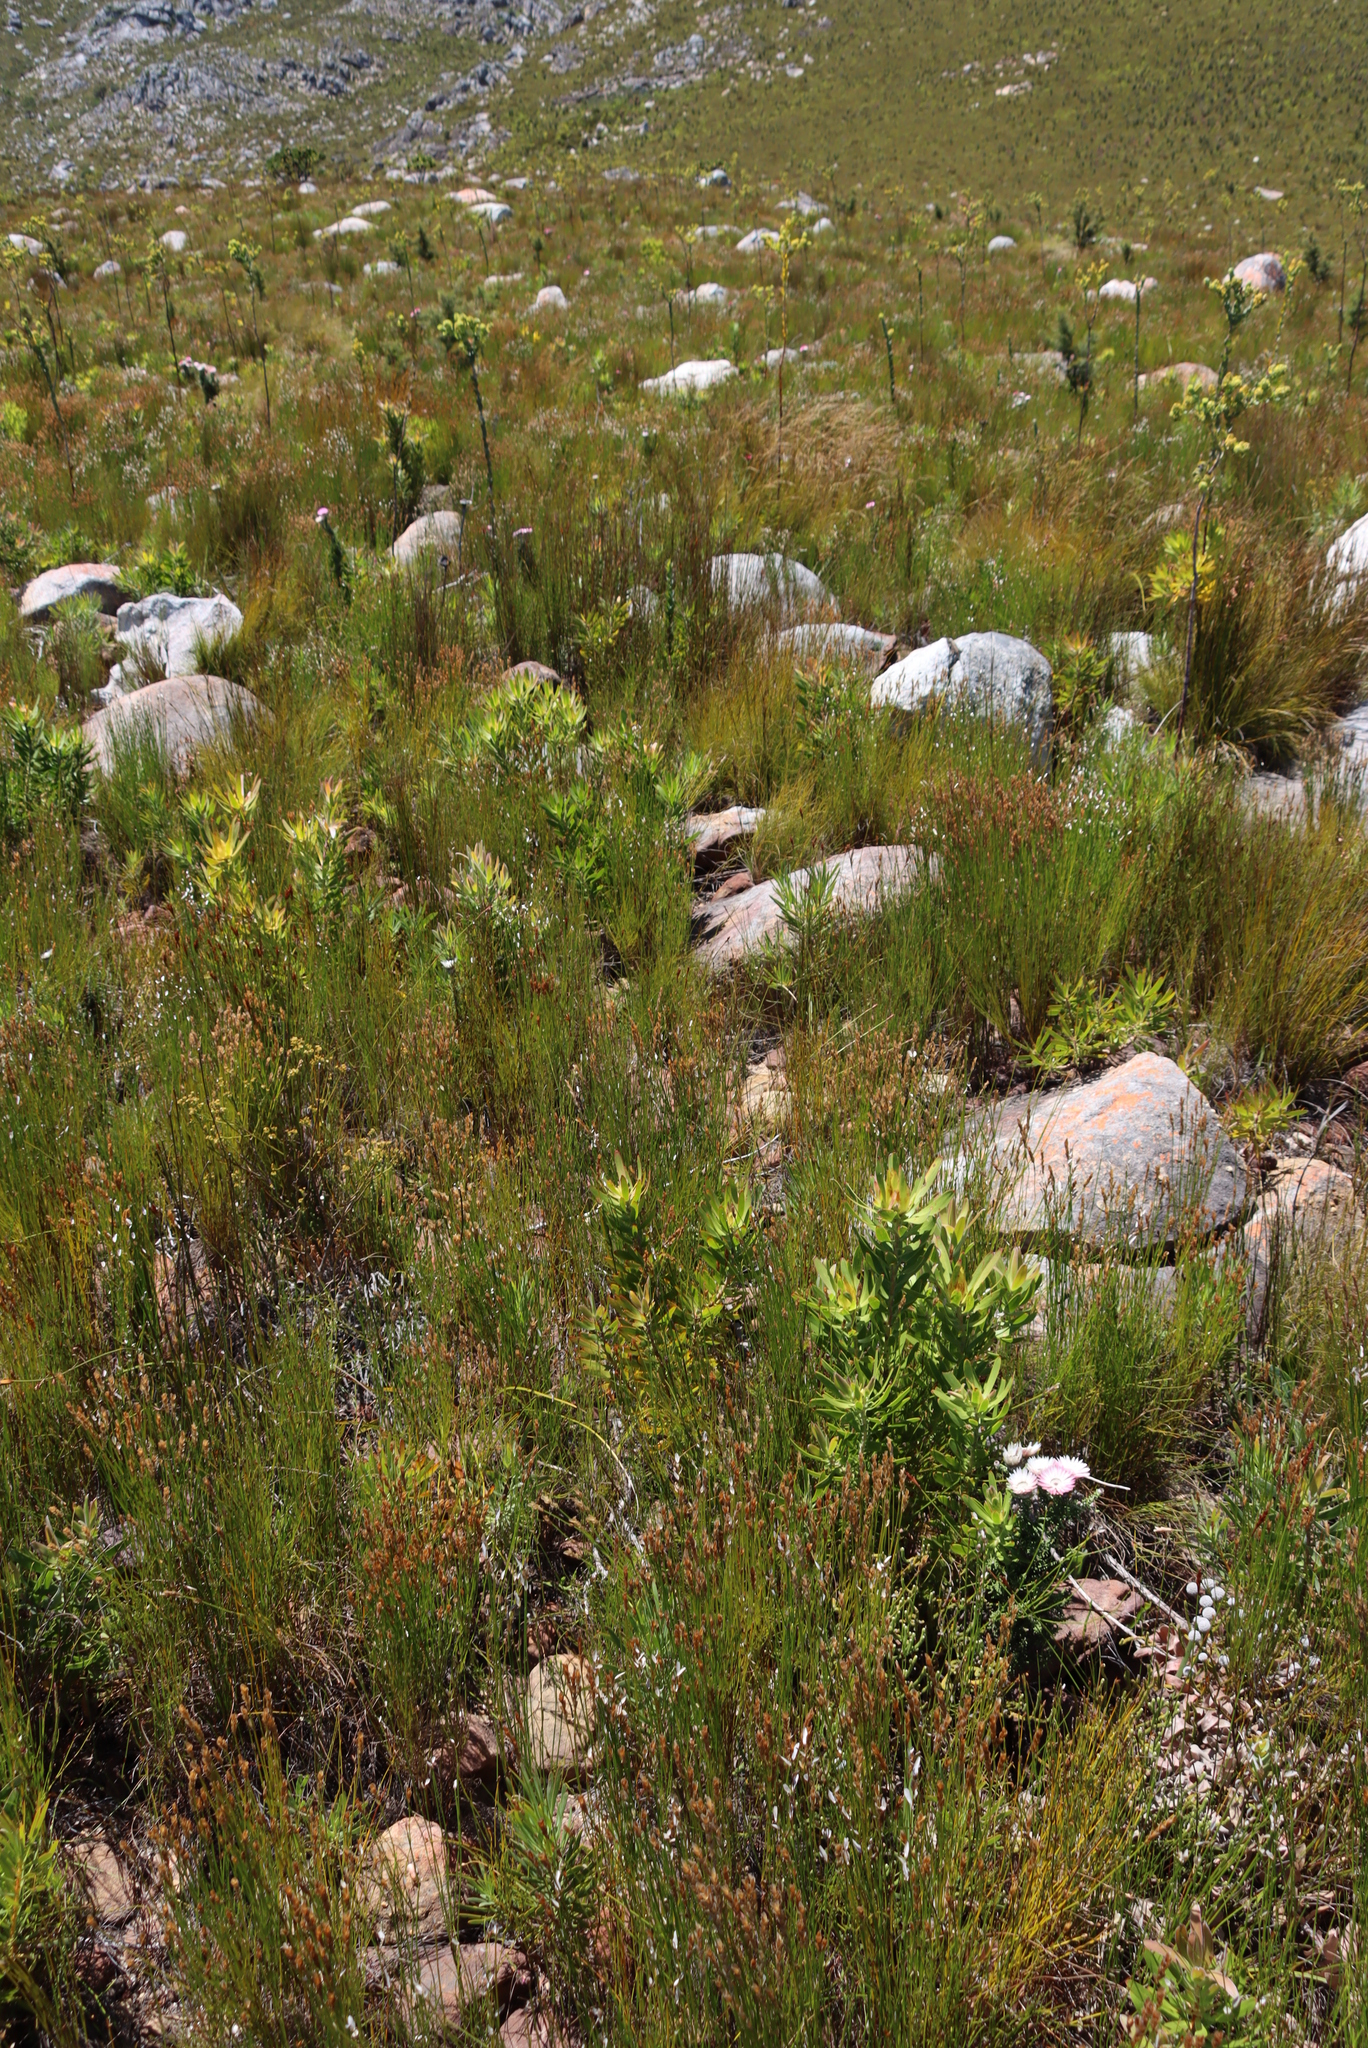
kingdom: Plantae
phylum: Tracheophyta
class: Magnoliopsida
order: Proteales
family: Proteaceae
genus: Leucadendron
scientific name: Leucadendron laureolum
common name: Golden sunshinebush
